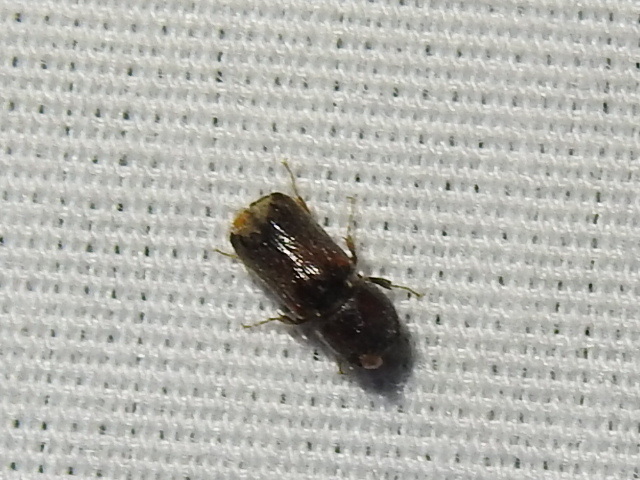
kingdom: Animalia
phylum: Arthropoda
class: Insecta
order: Coleoptera
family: Bostrichidae
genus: Xylobiops
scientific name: Xylobiops basilaris
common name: Red-shouldered bostrichid
